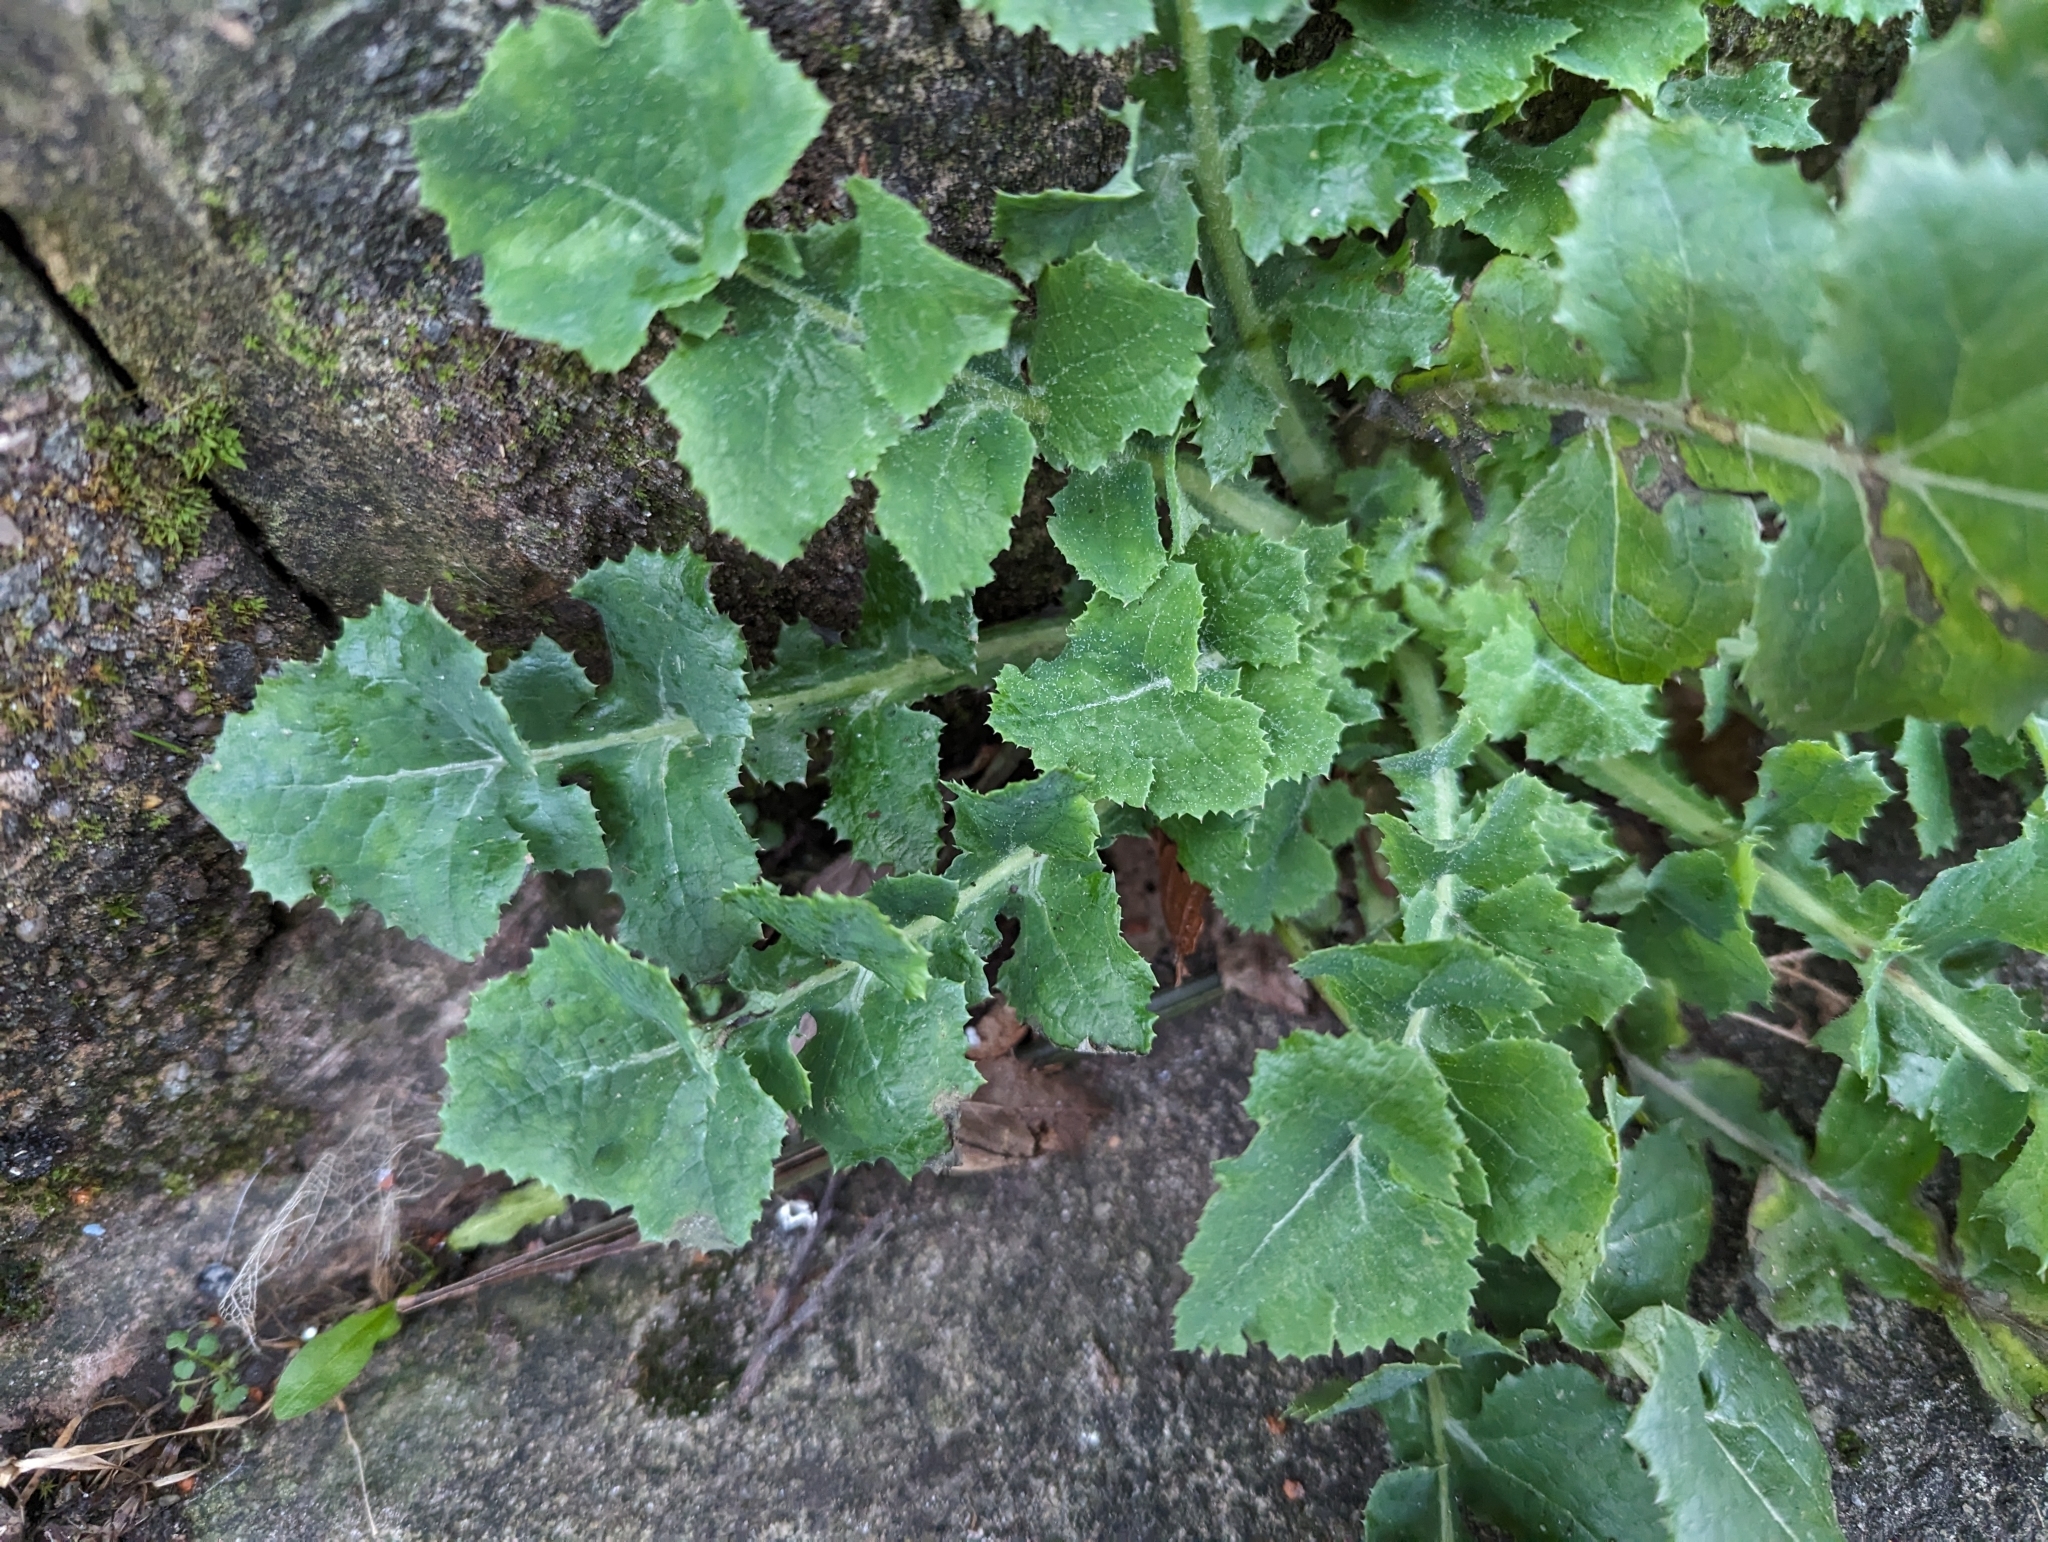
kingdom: Plantae
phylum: Tracheophyta
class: Magnoliopsida
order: Asterales
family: Asteraceae
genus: Sonchus
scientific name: Sonchus oleraceus
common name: Common sowthistle
